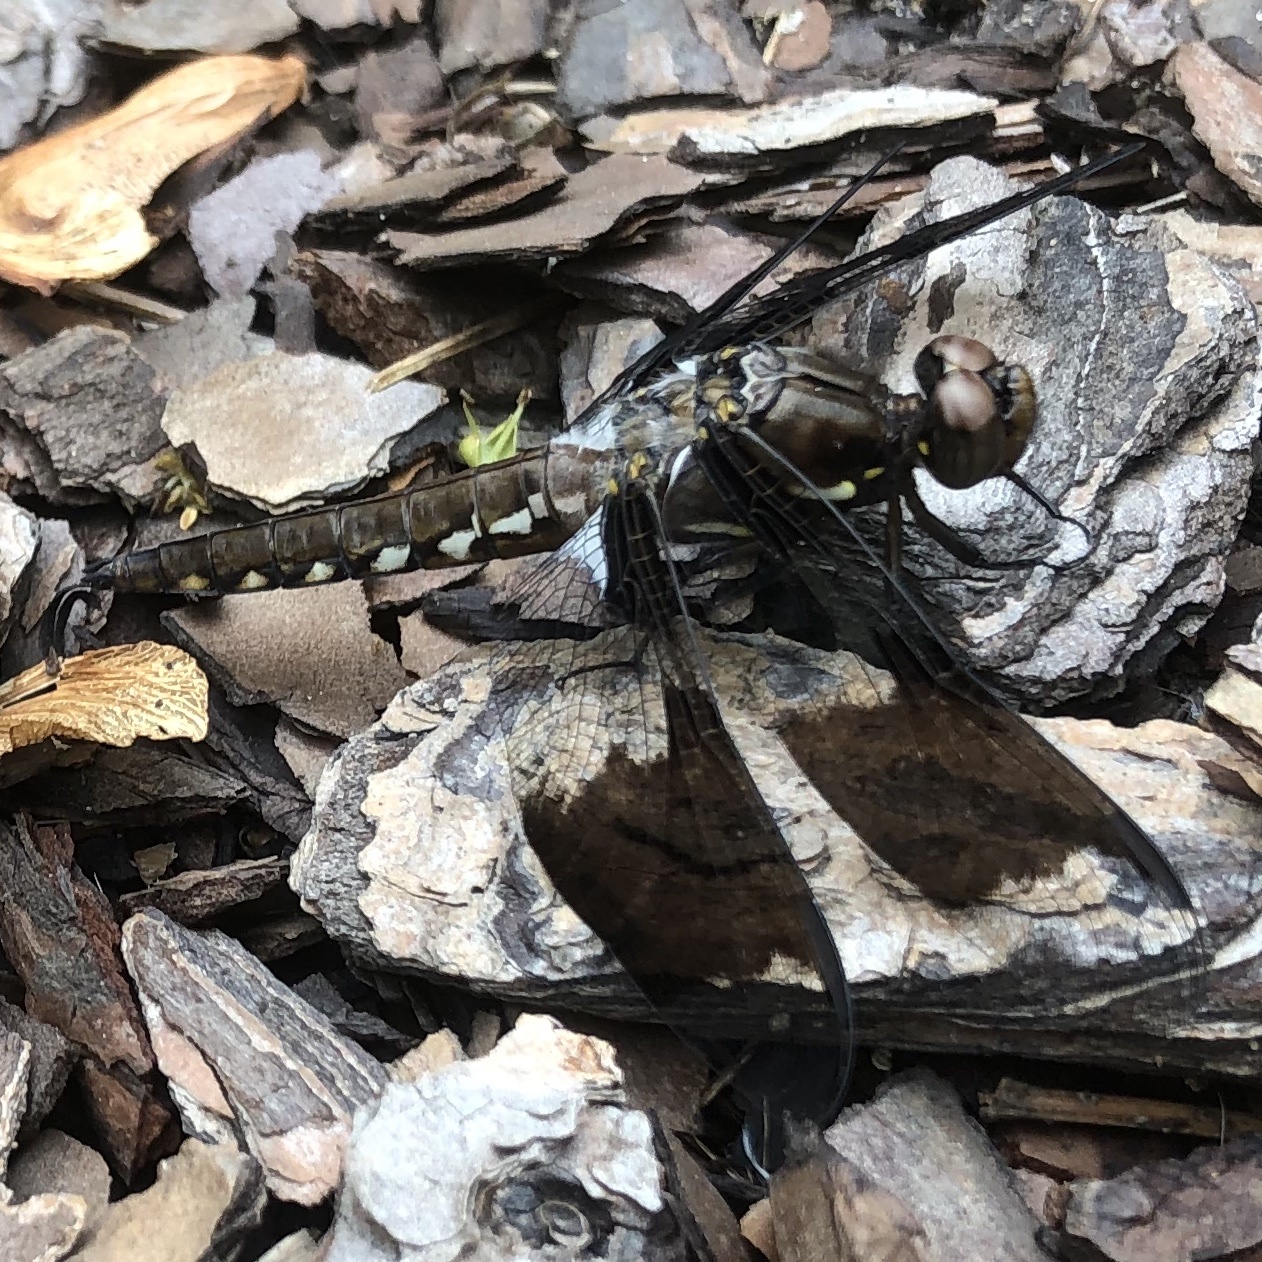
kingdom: Animalia
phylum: Arthropoda
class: Insecta
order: Odonata
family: Libellulidae
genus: Plathemis
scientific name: Plathemis lydia
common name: Common whitetail
